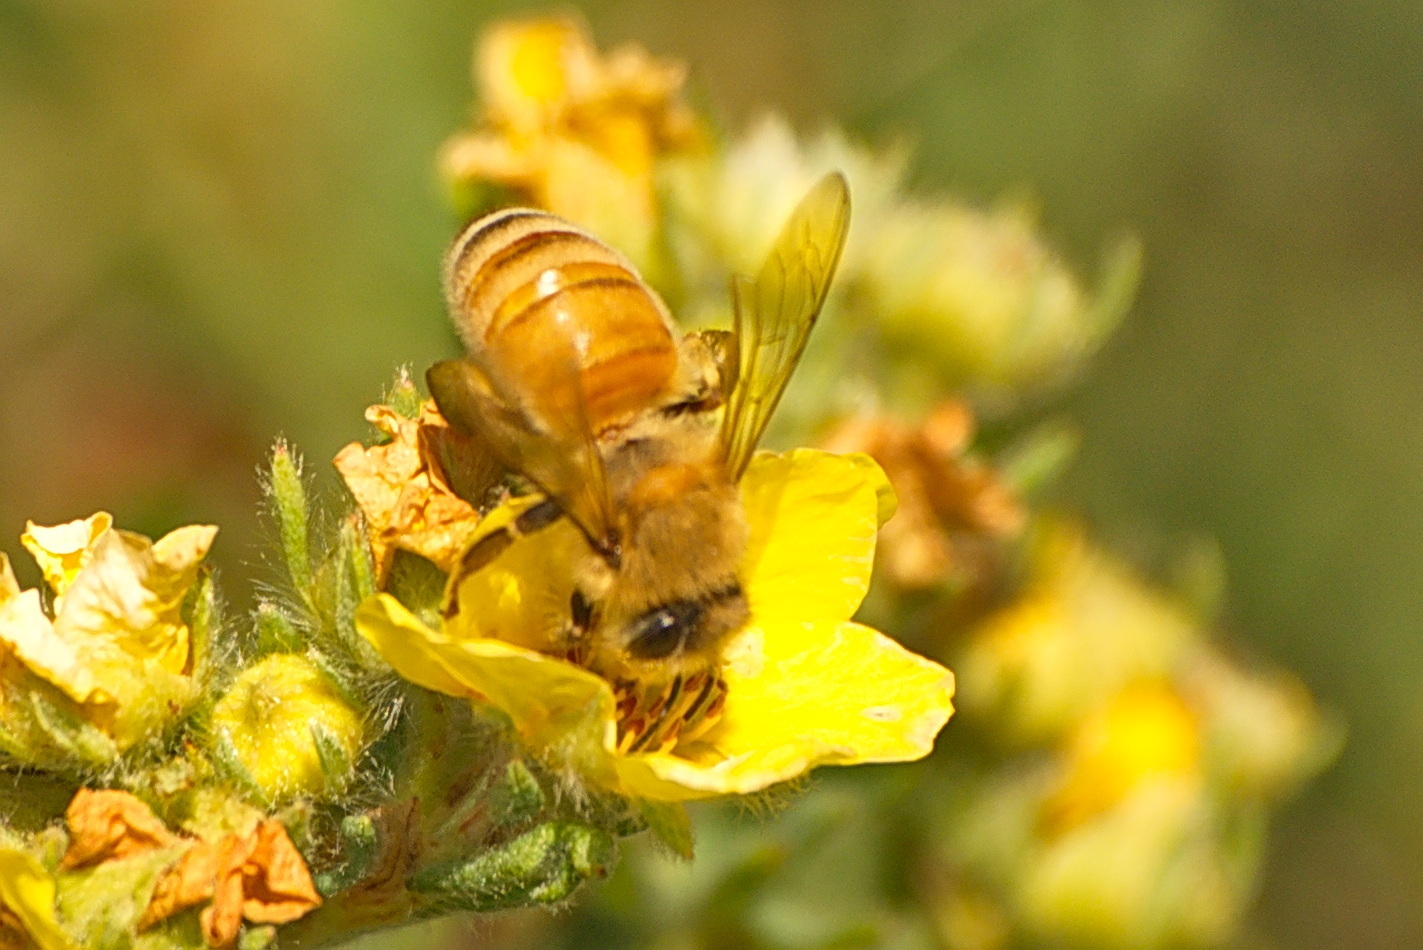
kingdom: Animalia
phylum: Arthropoda
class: Insecta
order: Hymenoptera
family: Apidae
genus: Apis
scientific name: Apis mellifera
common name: Honey bee
